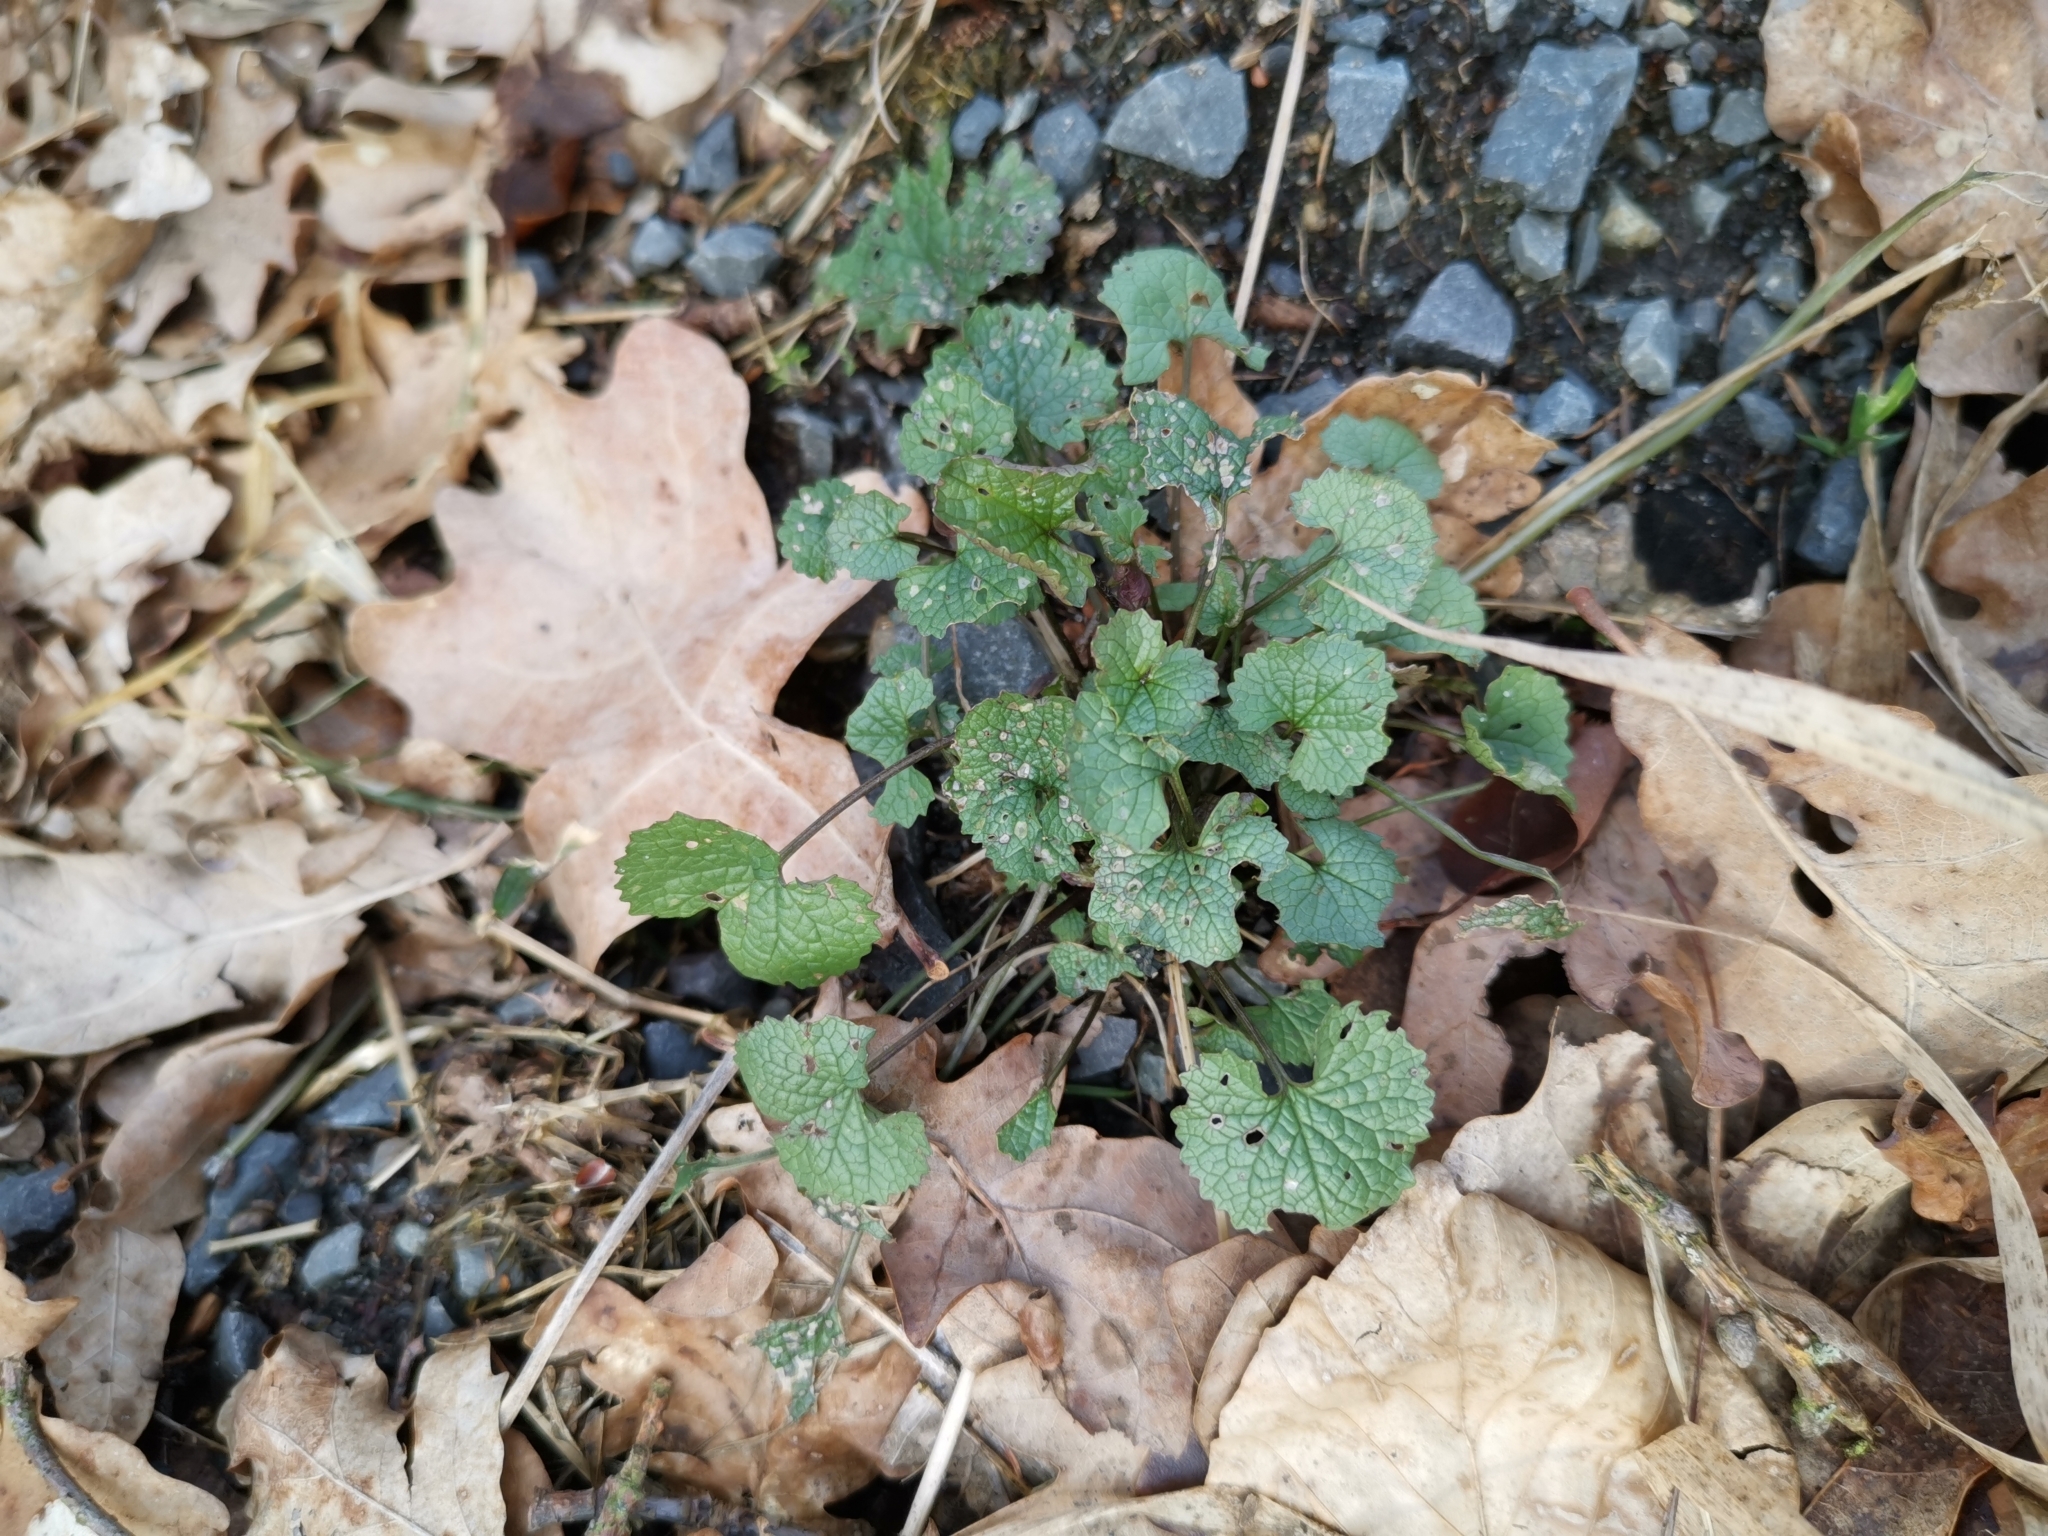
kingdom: Plantae
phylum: Tracheophyta
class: Magnoliopsida
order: Brassicales
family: Brassicaceae
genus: Alliaria
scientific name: Alliaria petiolata
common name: Garlic mustard
